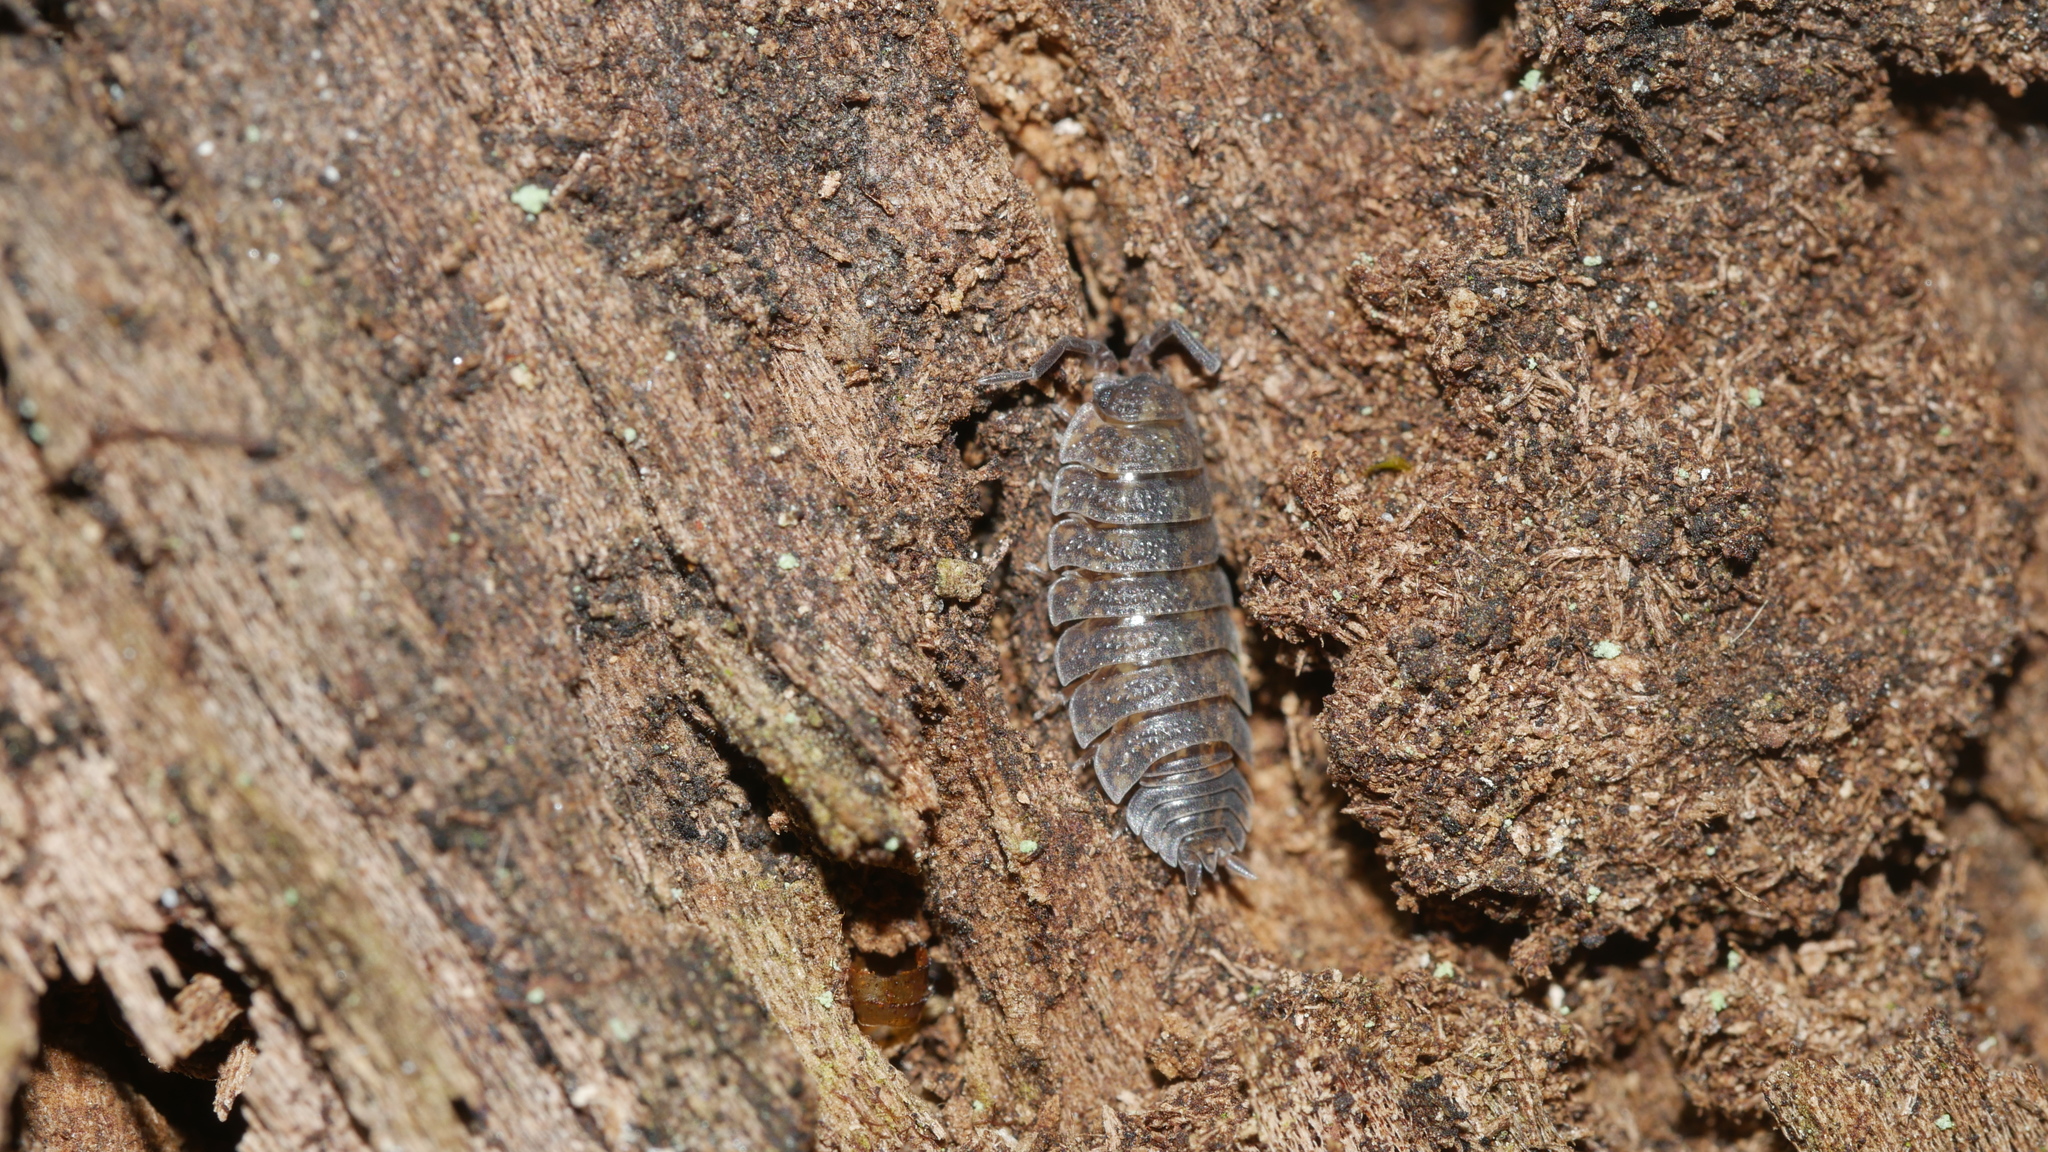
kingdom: Animalia
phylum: Arthropoda
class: Malacostraca
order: Isopoda
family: Porcellionidae
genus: Porcellio
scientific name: Porcellio scaber
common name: Common rough woodlouse
